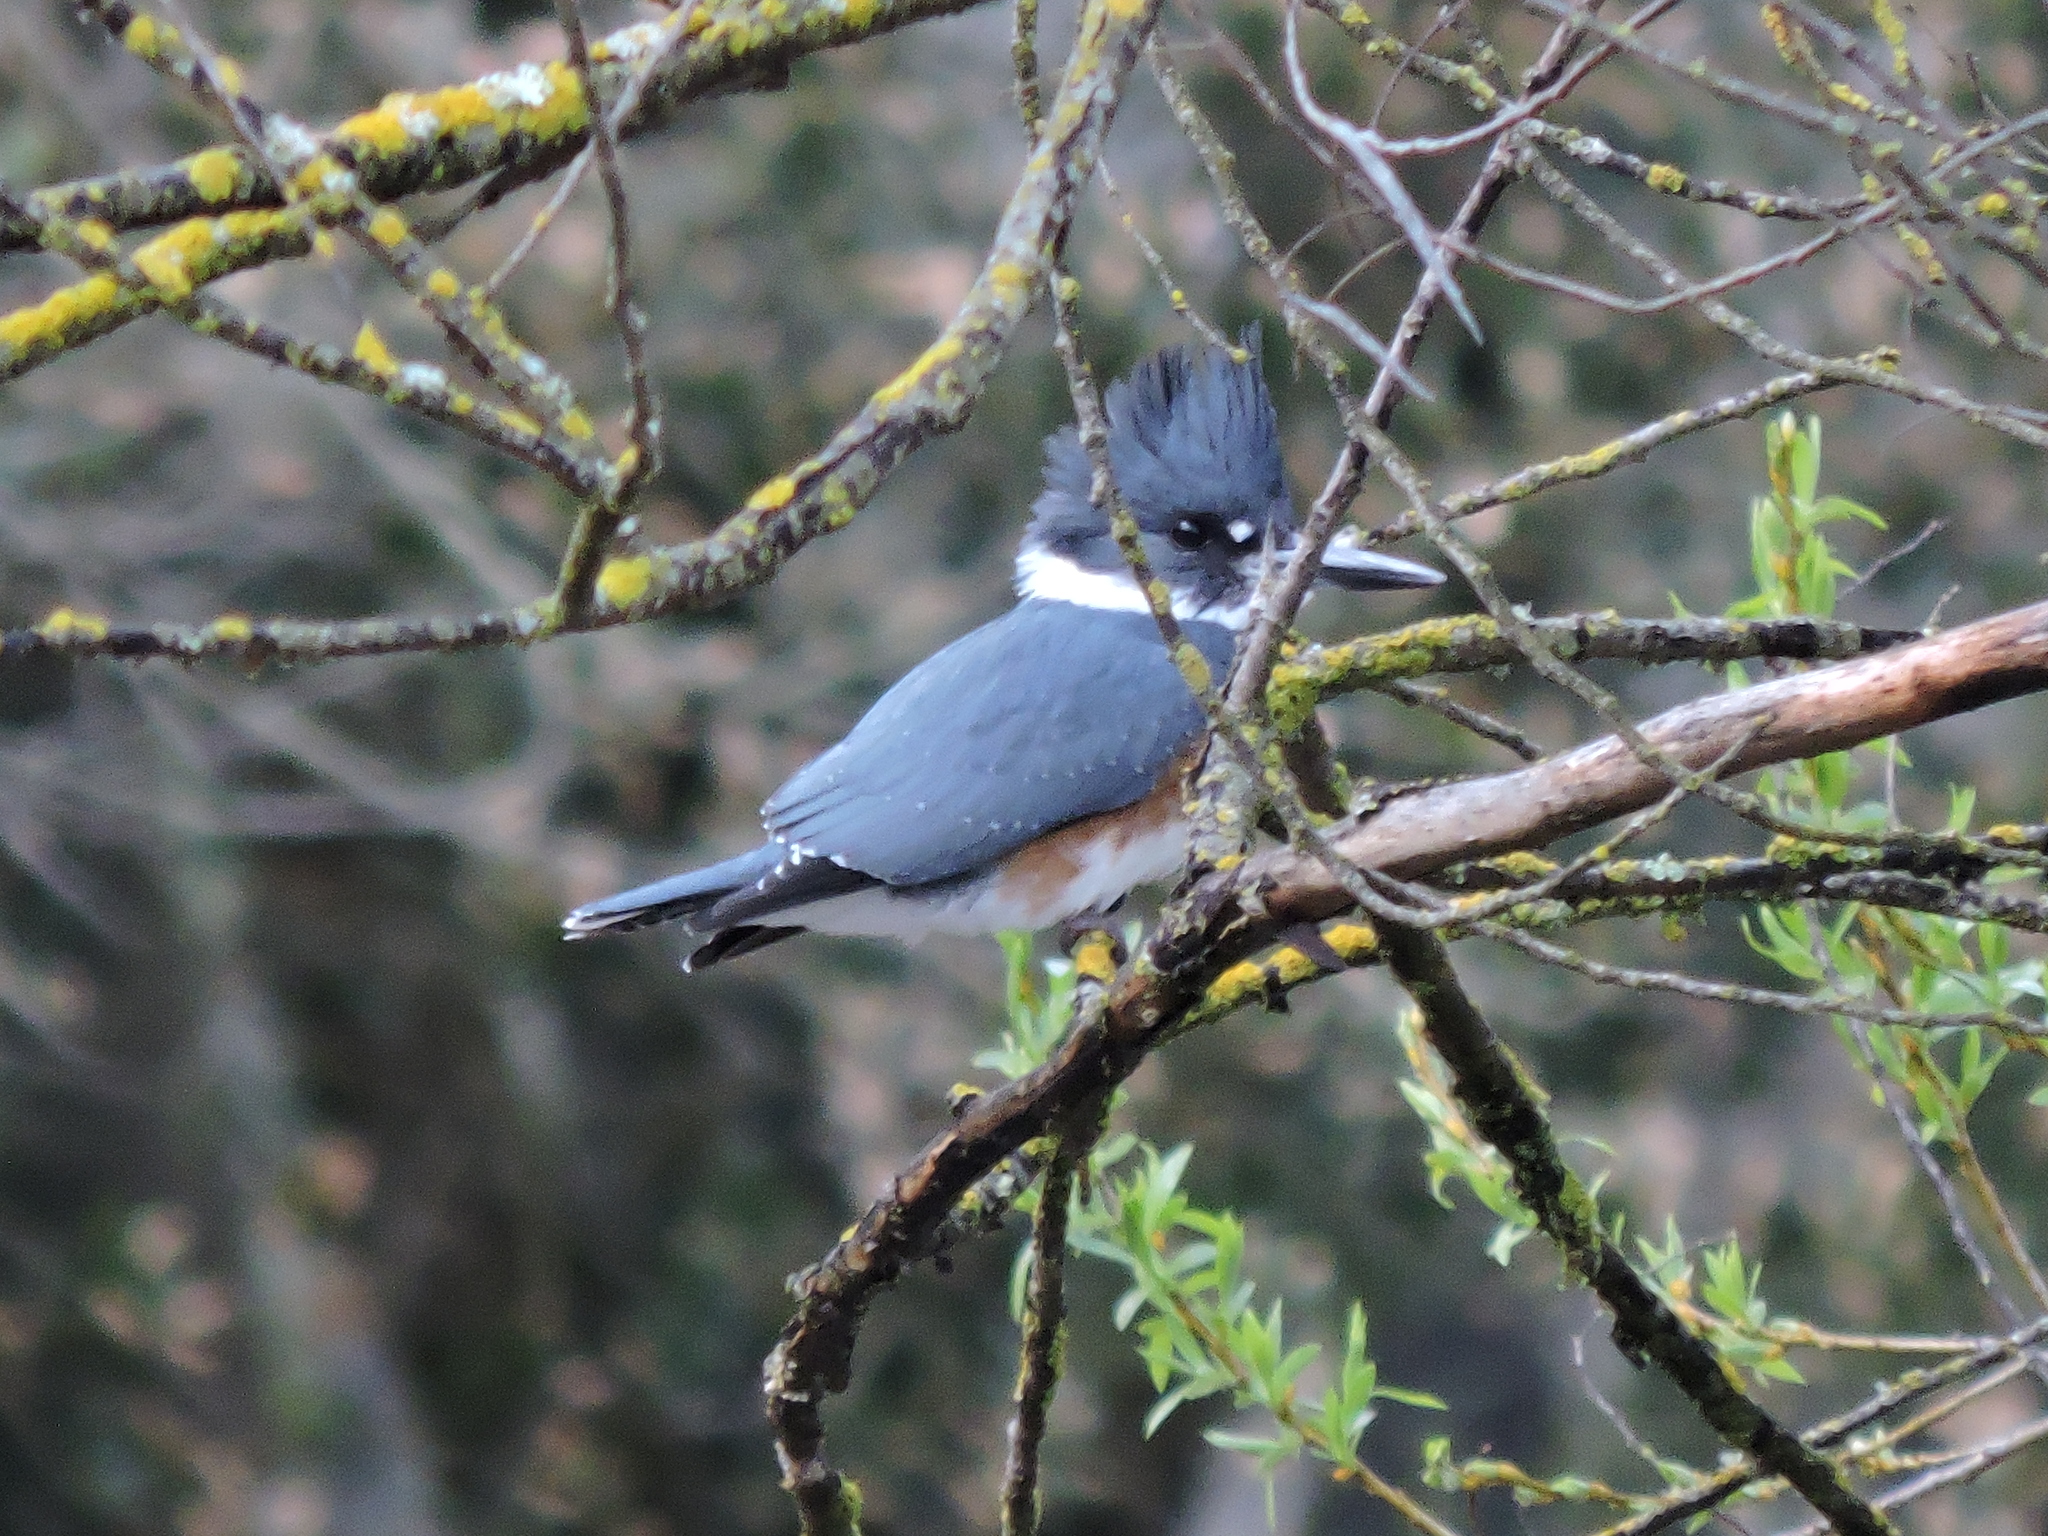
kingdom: Animalia
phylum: Chordata
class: Aves
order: Coraciiformes
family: Alcedinidae
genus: Megaceryle
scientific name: Megaceryle alcyon
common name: Belted kingfisher
